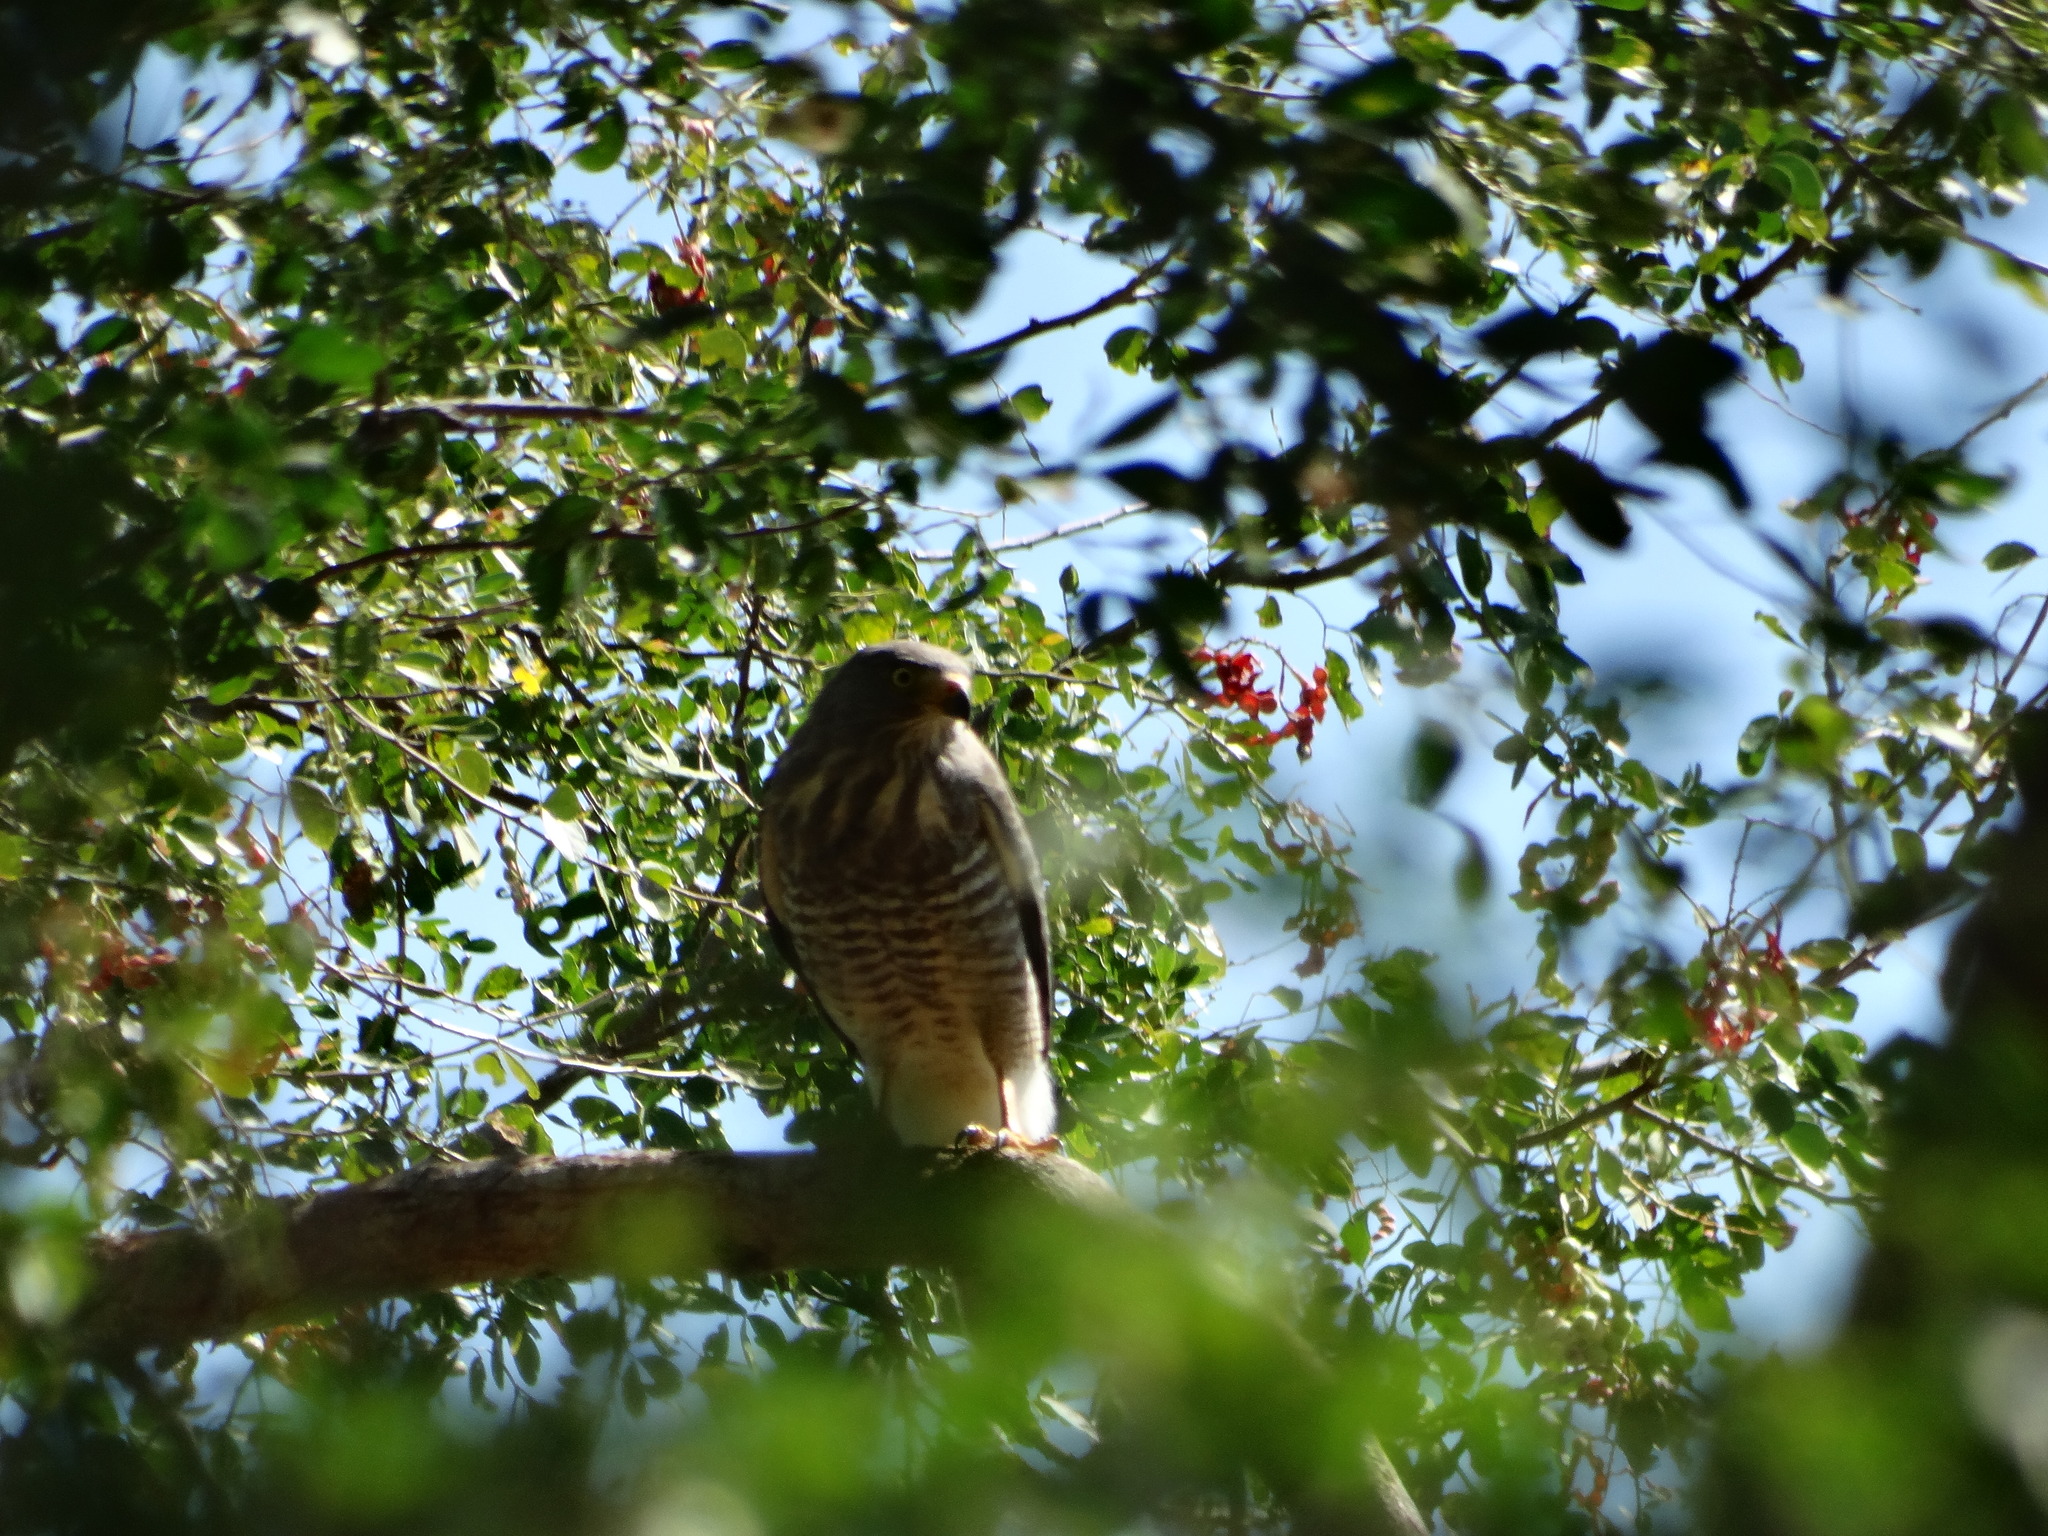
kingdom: Animalia
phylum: Chordata
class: Aves
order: Accipitriformes
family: Accipitridae
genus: Rupornis
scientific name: Rupornis magnirostris
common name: Roadside hawk
